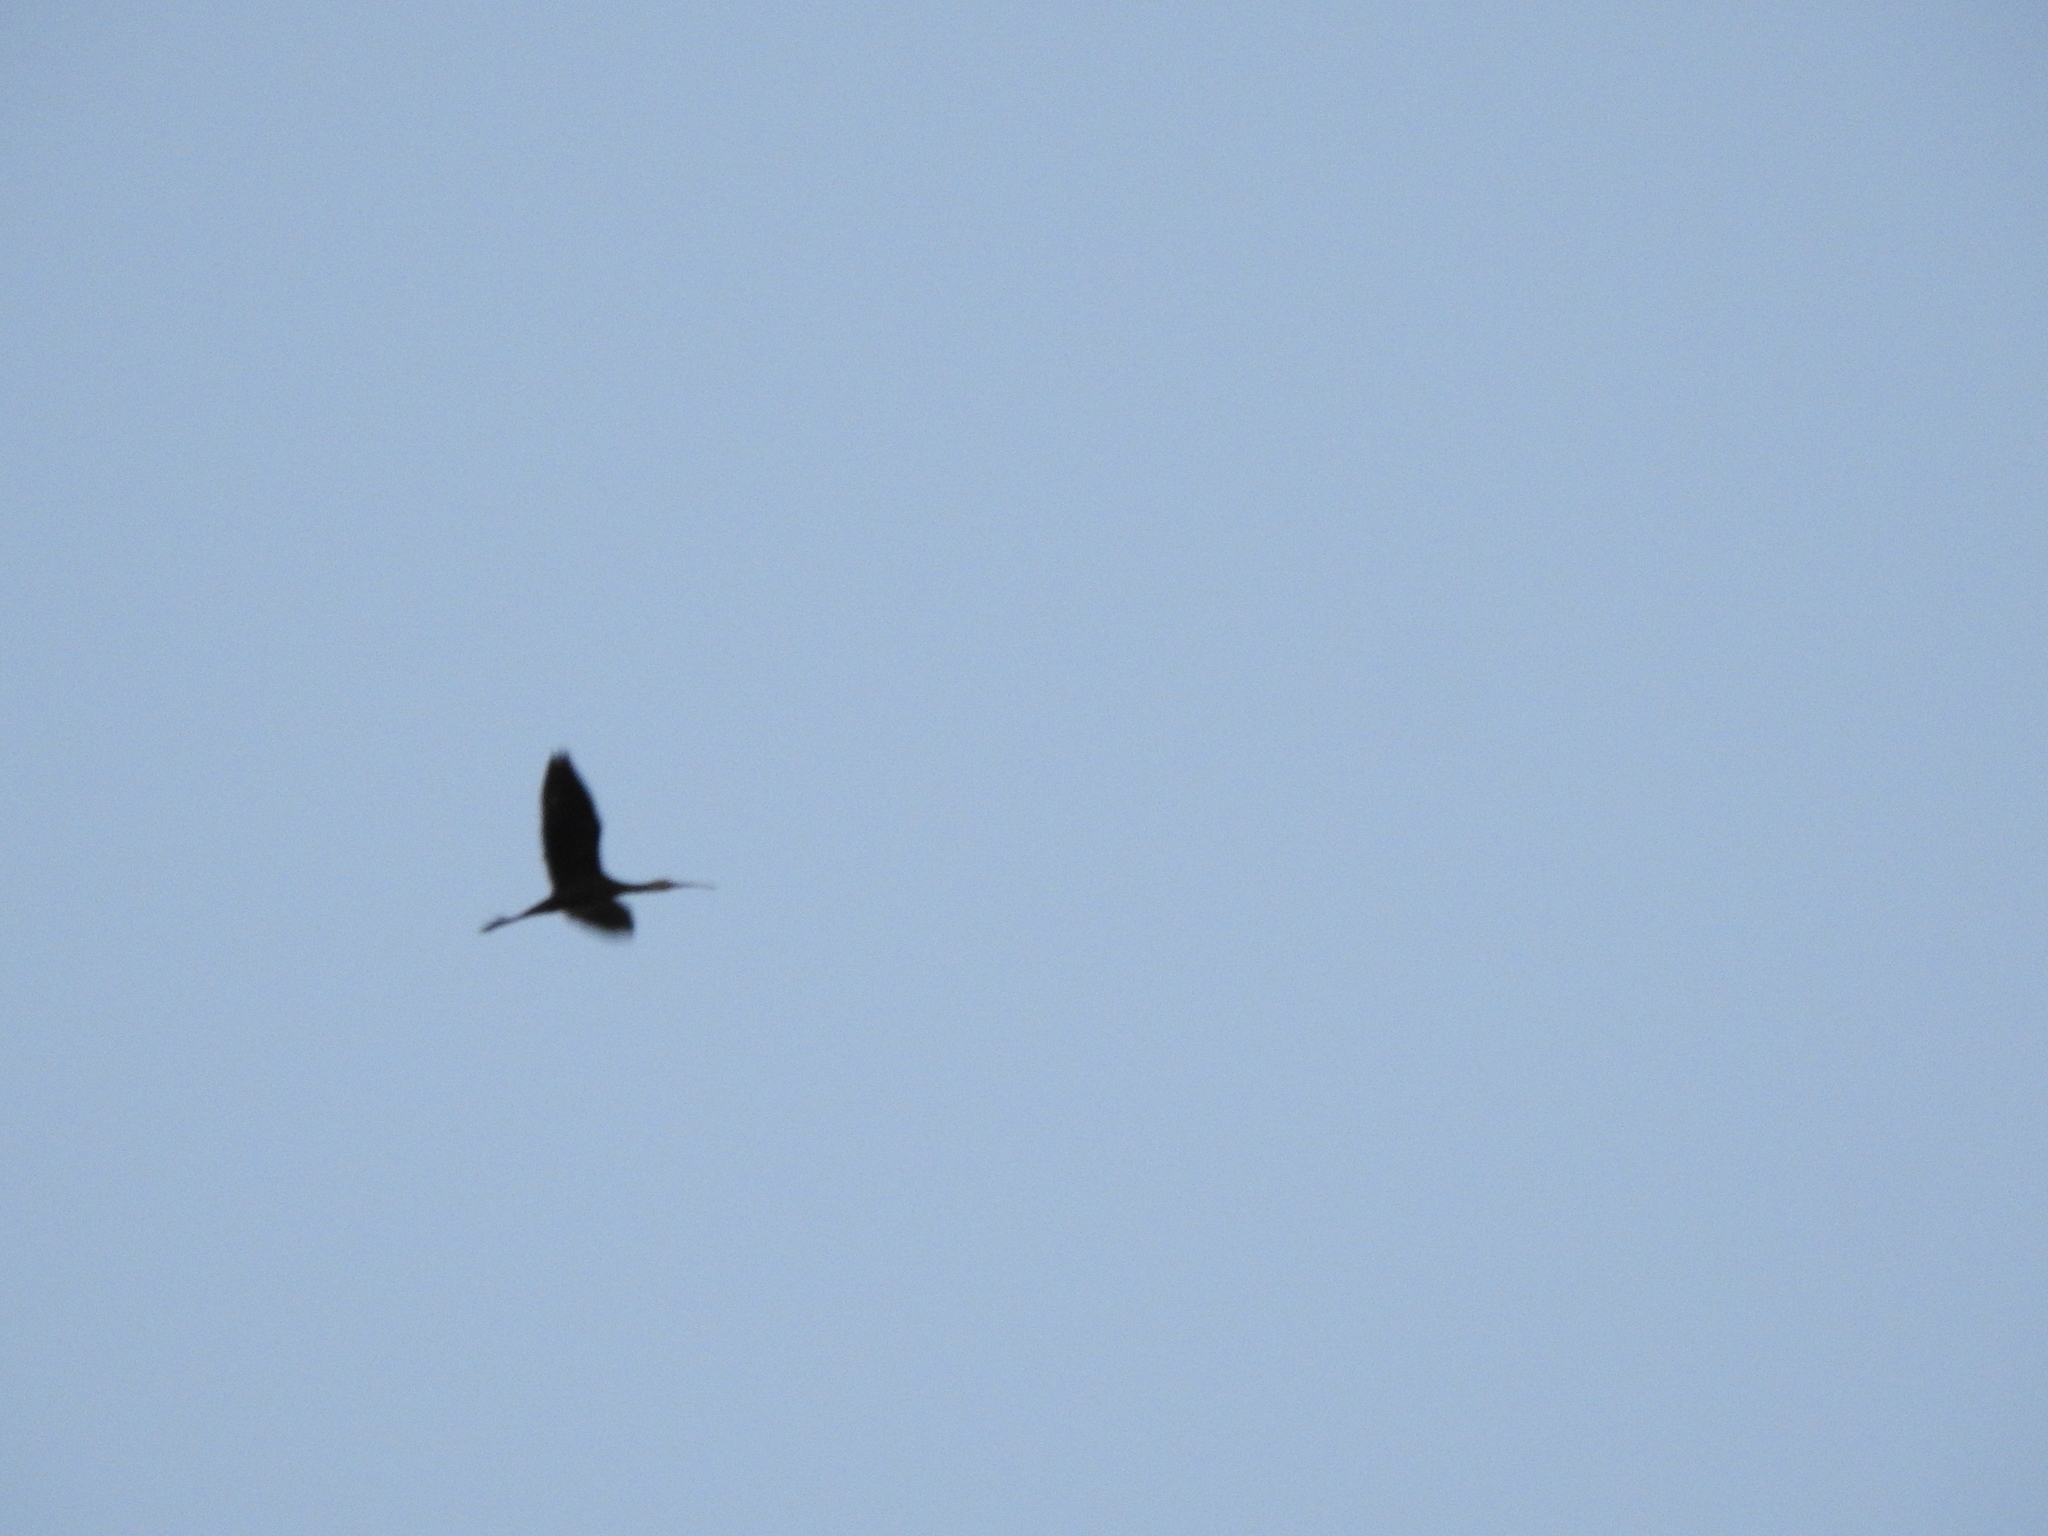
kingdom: Animalia
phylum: Chordata
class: Aves
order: Pelecaniformes
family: Threskiornithidae
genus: Plegadis
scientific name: Plegadis chihi
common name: White-faced ibis
